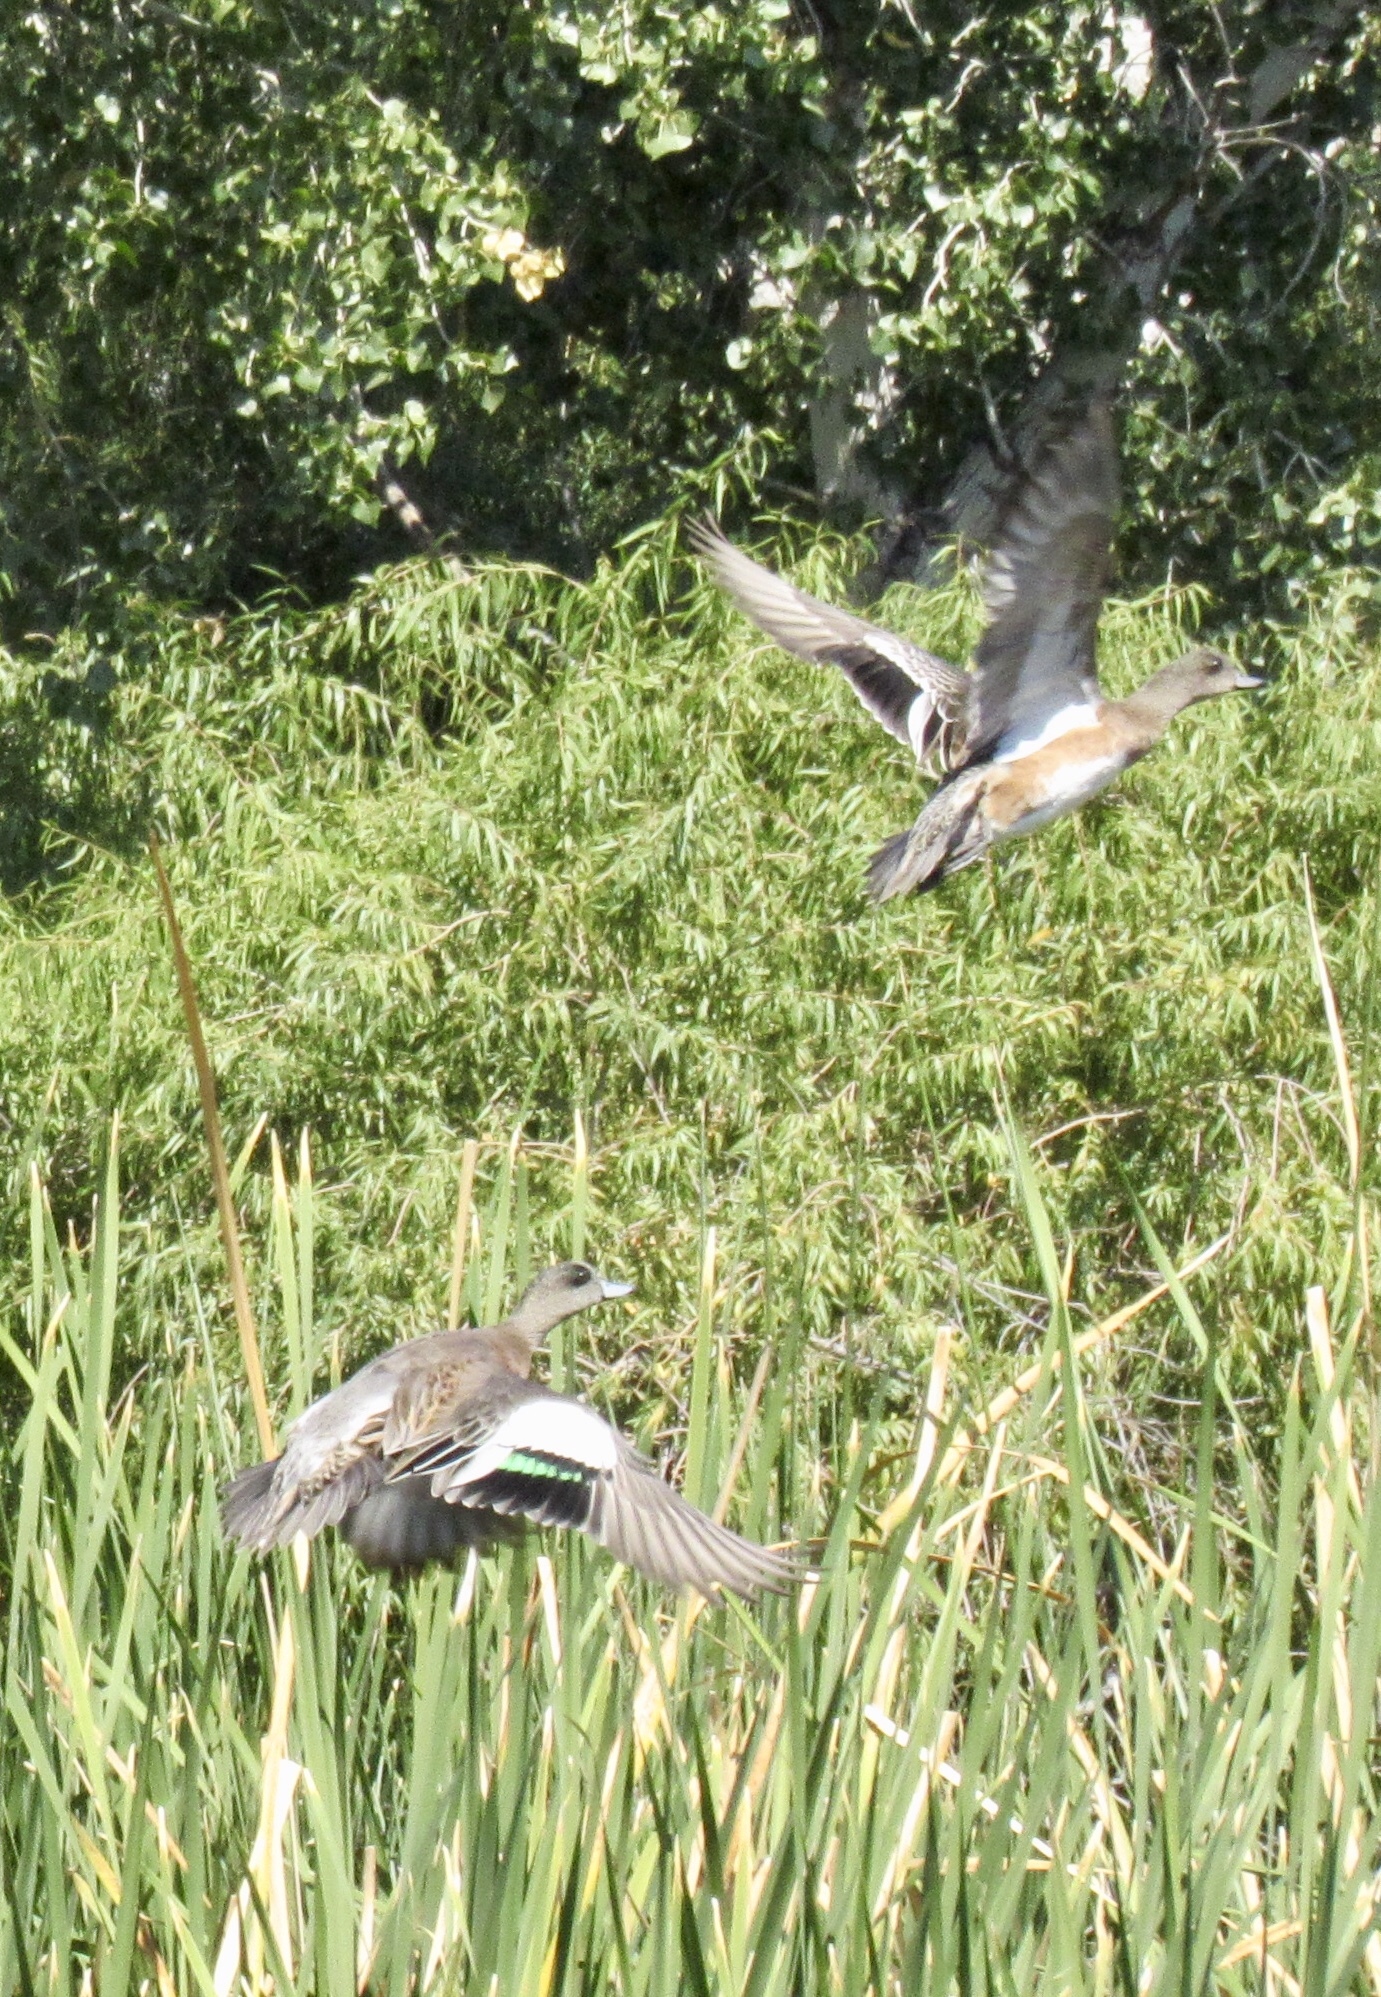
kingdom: Animalia
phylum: Chordata
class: Aves
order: Anseriformes
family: Anatidae
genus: Mareca
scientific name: Mareca americana
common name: American wigeon
